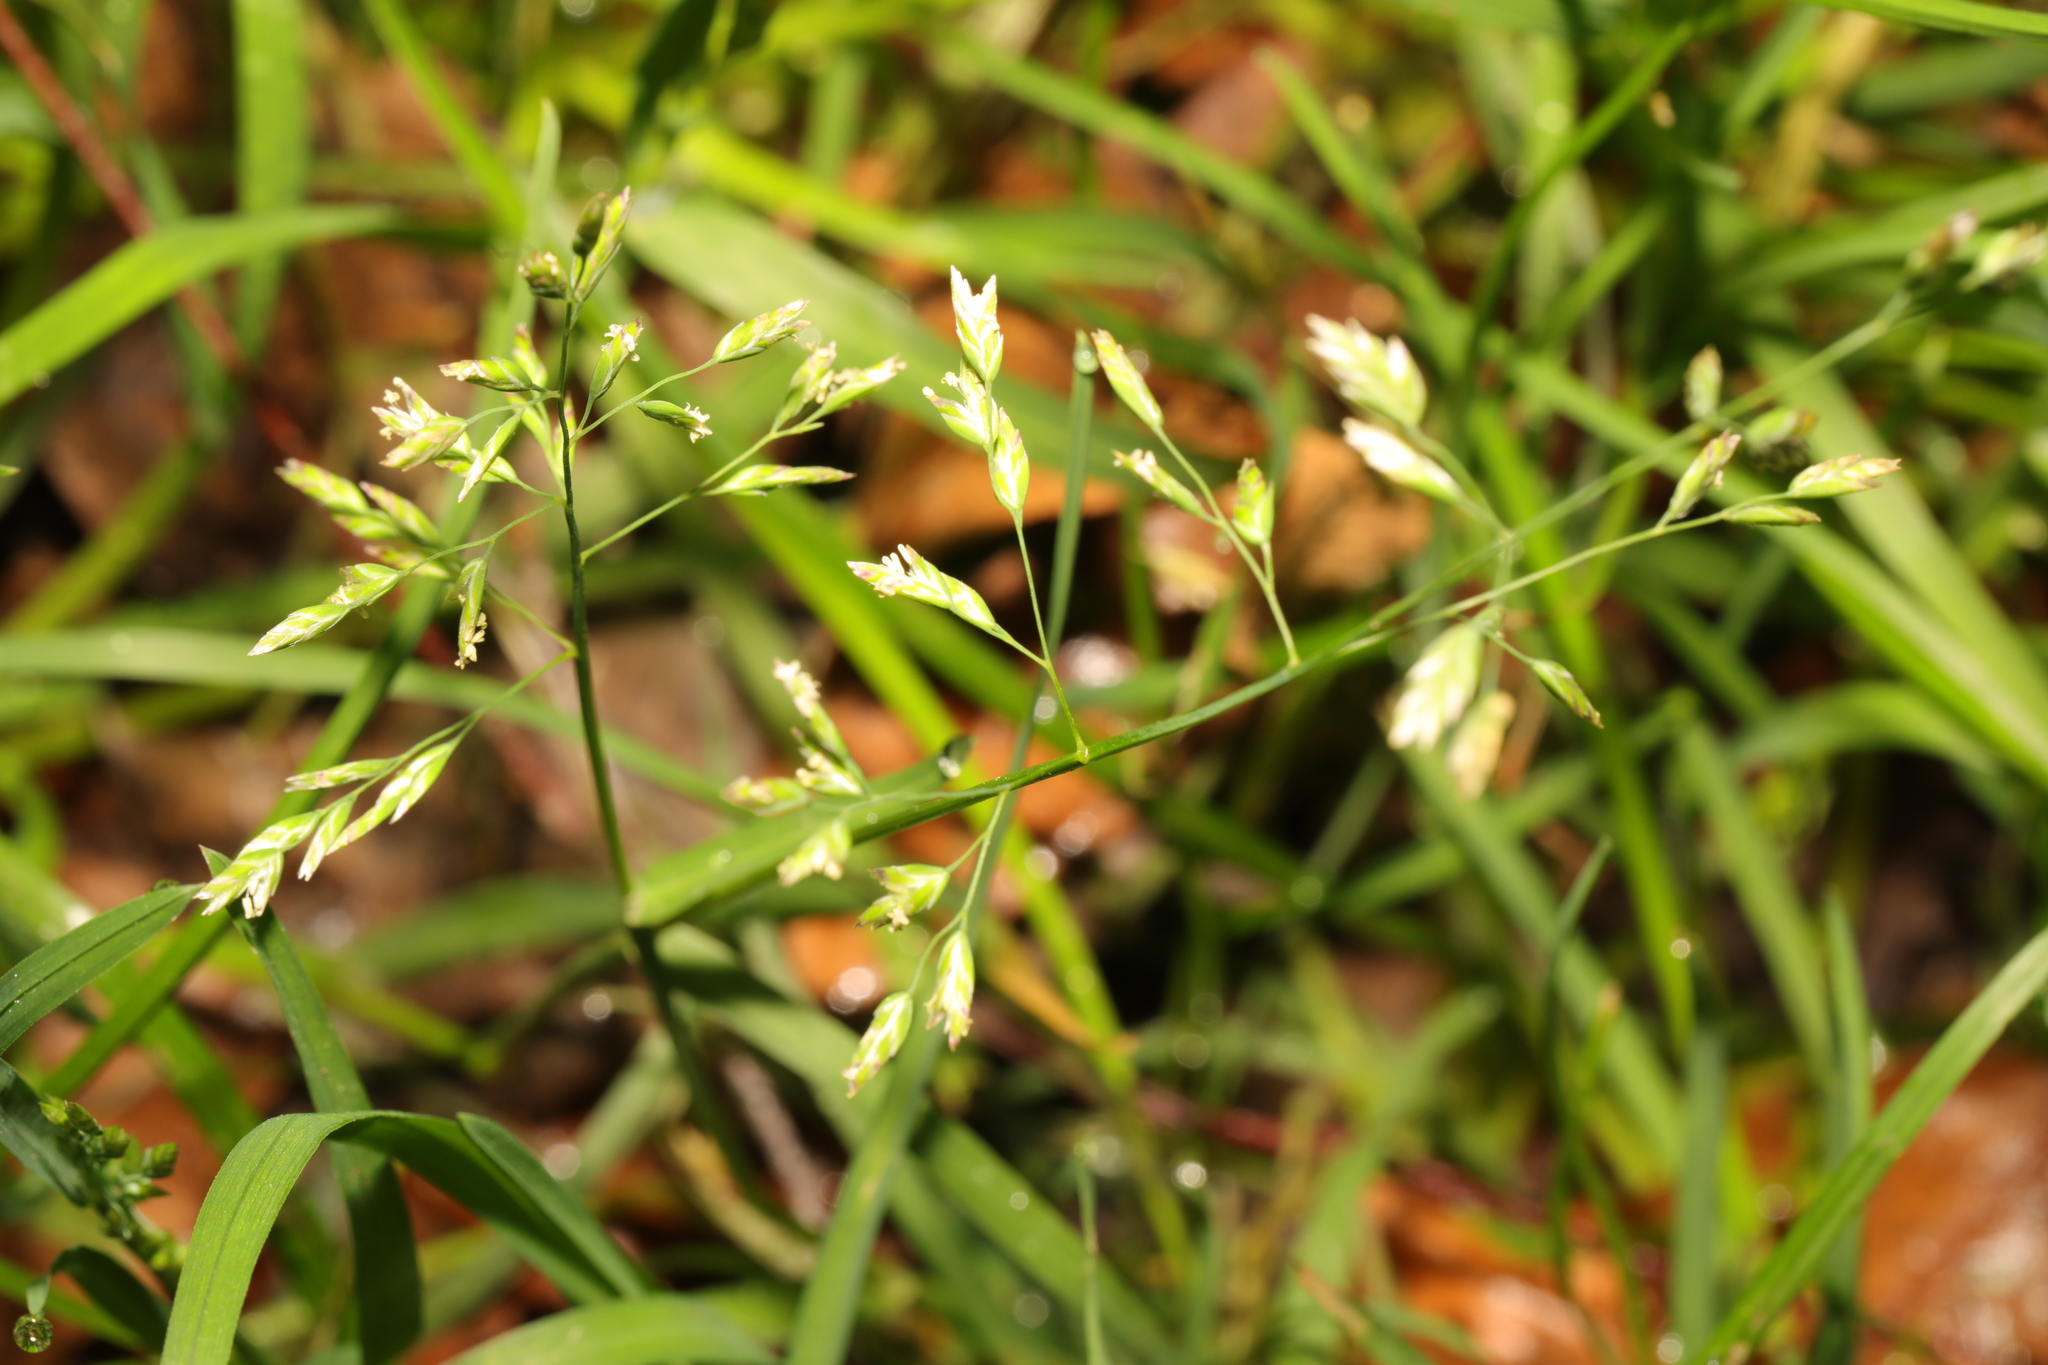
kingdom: Plantae
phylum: Tracheophyta
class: Liliopsida
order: Poales
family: Poaceae
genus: Poa
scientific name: Poa annua
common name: Annual bluegrass
